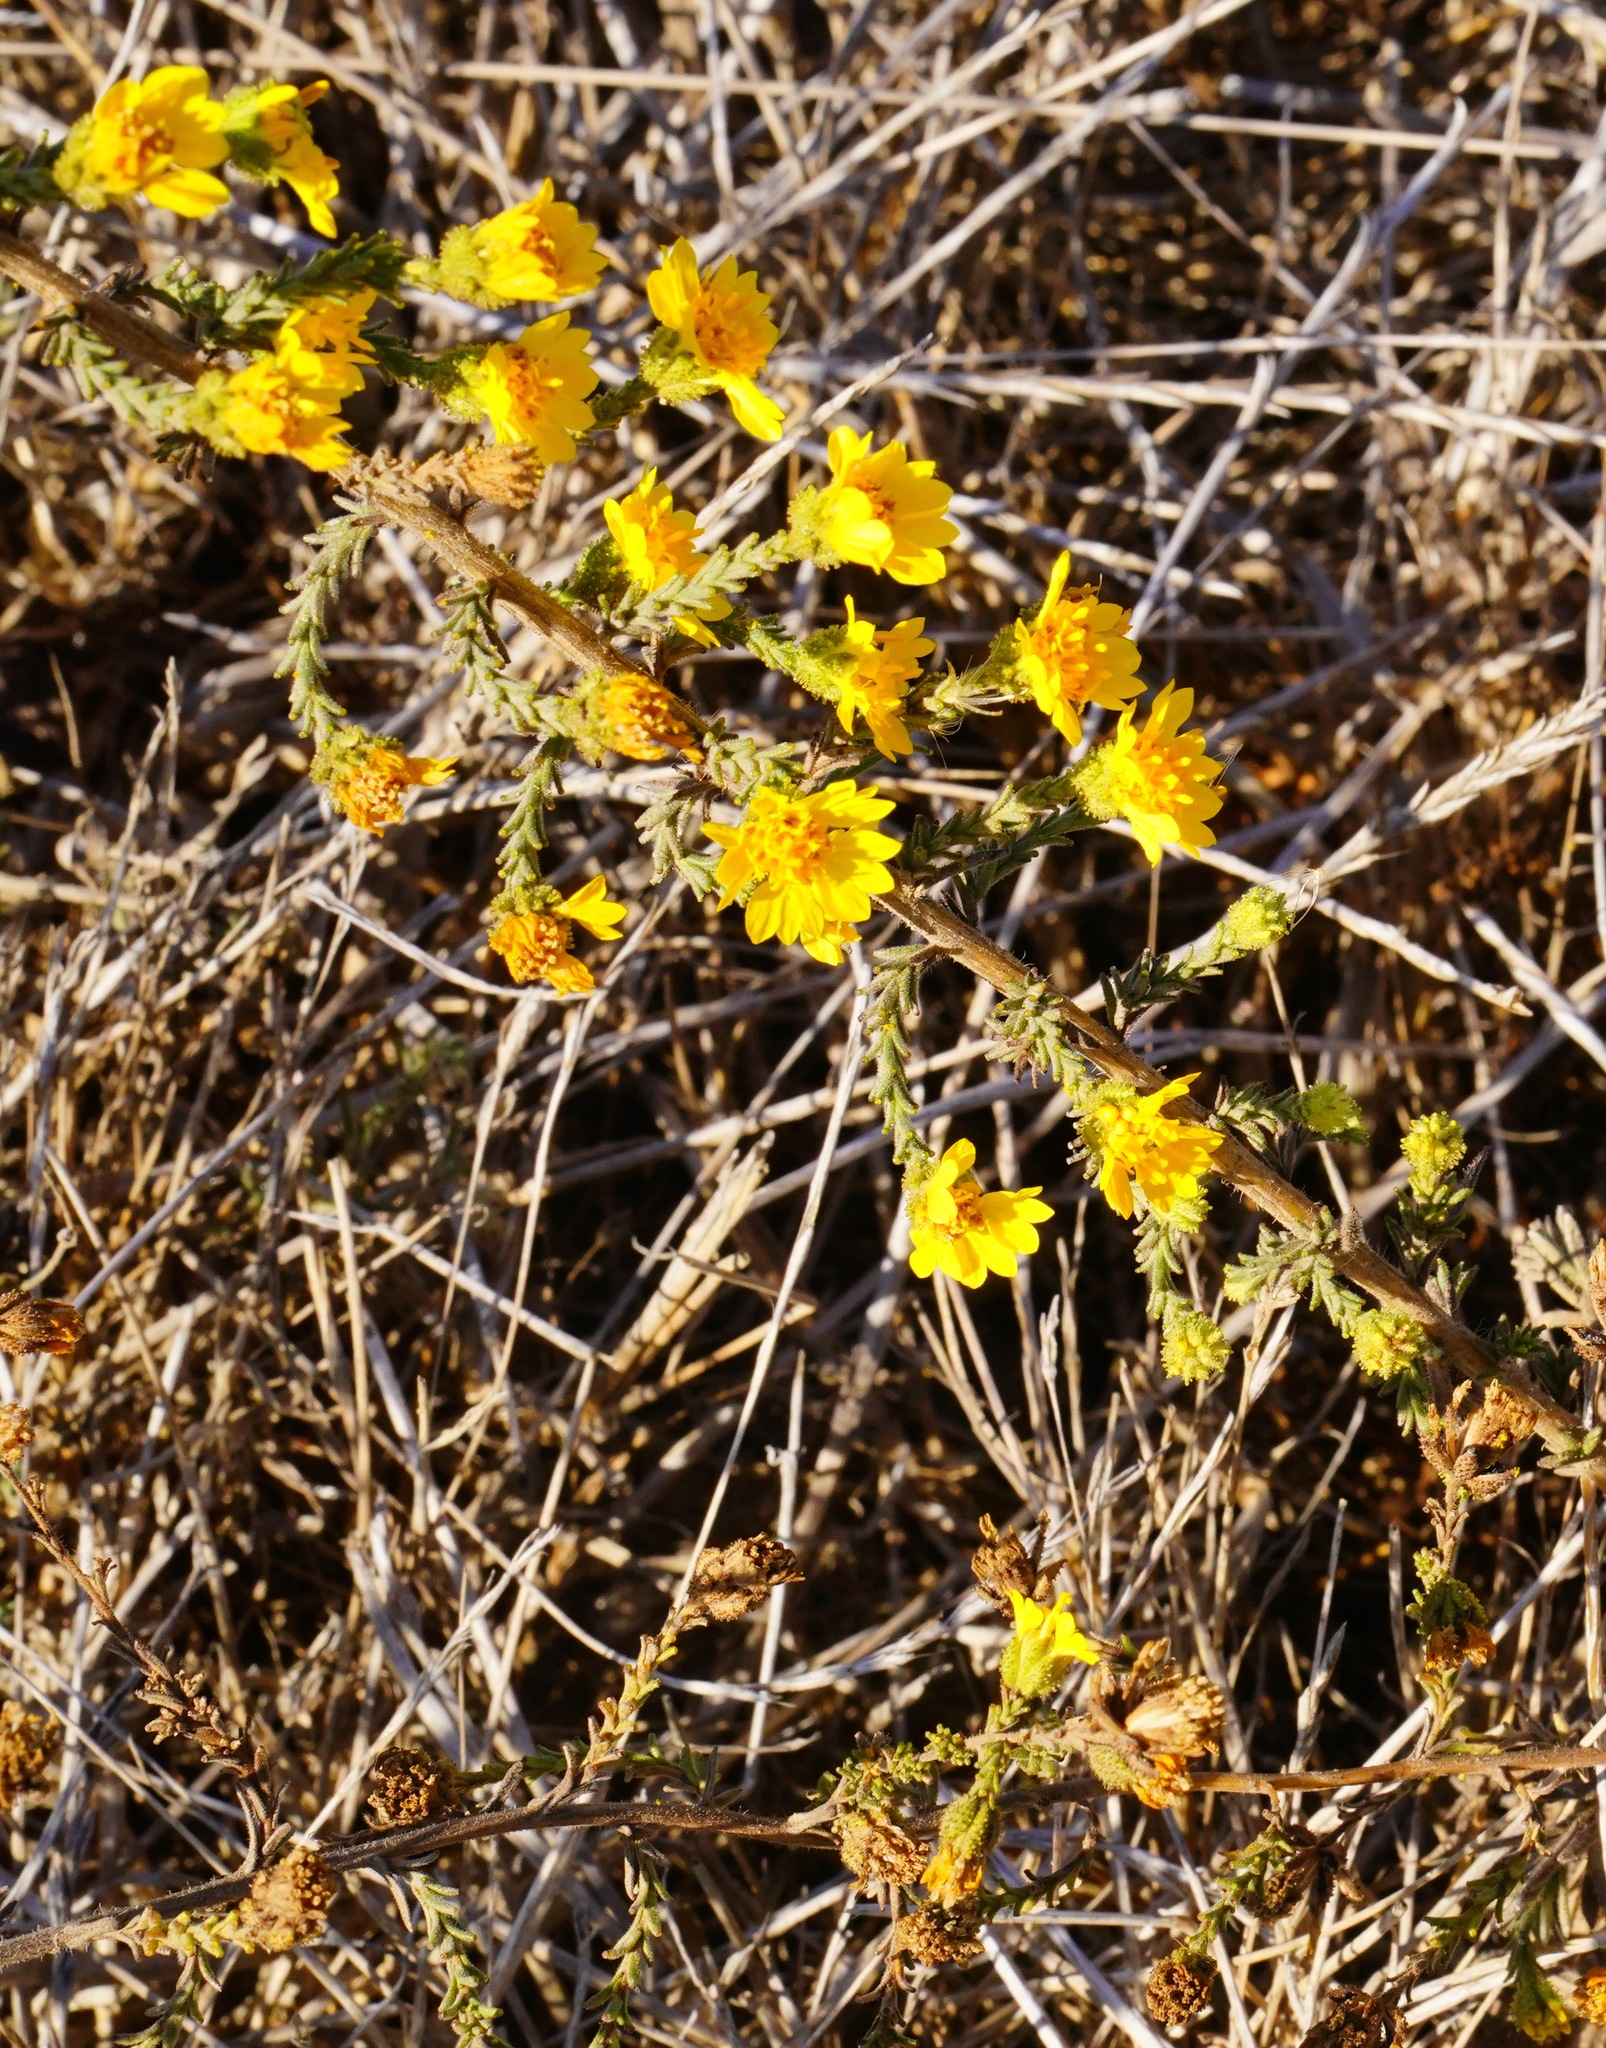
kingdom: Plantae
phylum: Tracheophyta
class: Magnoliopsida
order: Asterales
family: Asteraceae
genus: Holocarpha
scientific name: Holocarpha heermannii
